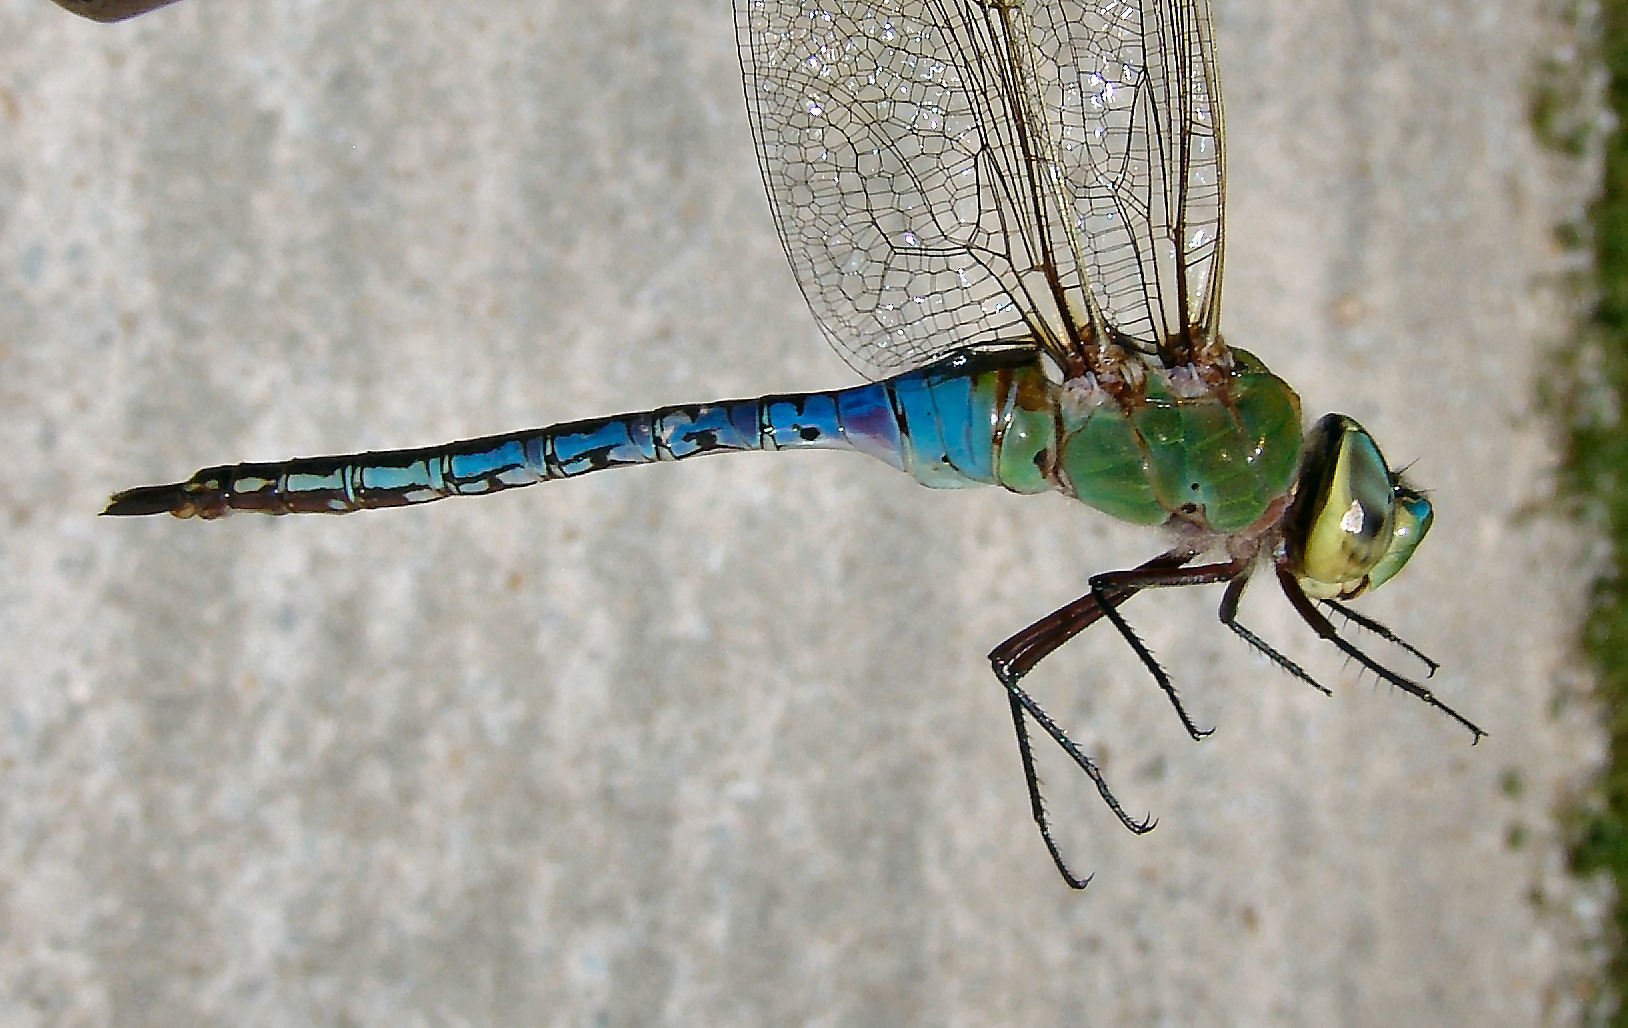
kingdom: Animalia
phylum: Arthropoda
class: Insecta
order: Odonata
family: Aeshnidae
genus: Anax
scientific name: Anax junius
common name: Common green darner
